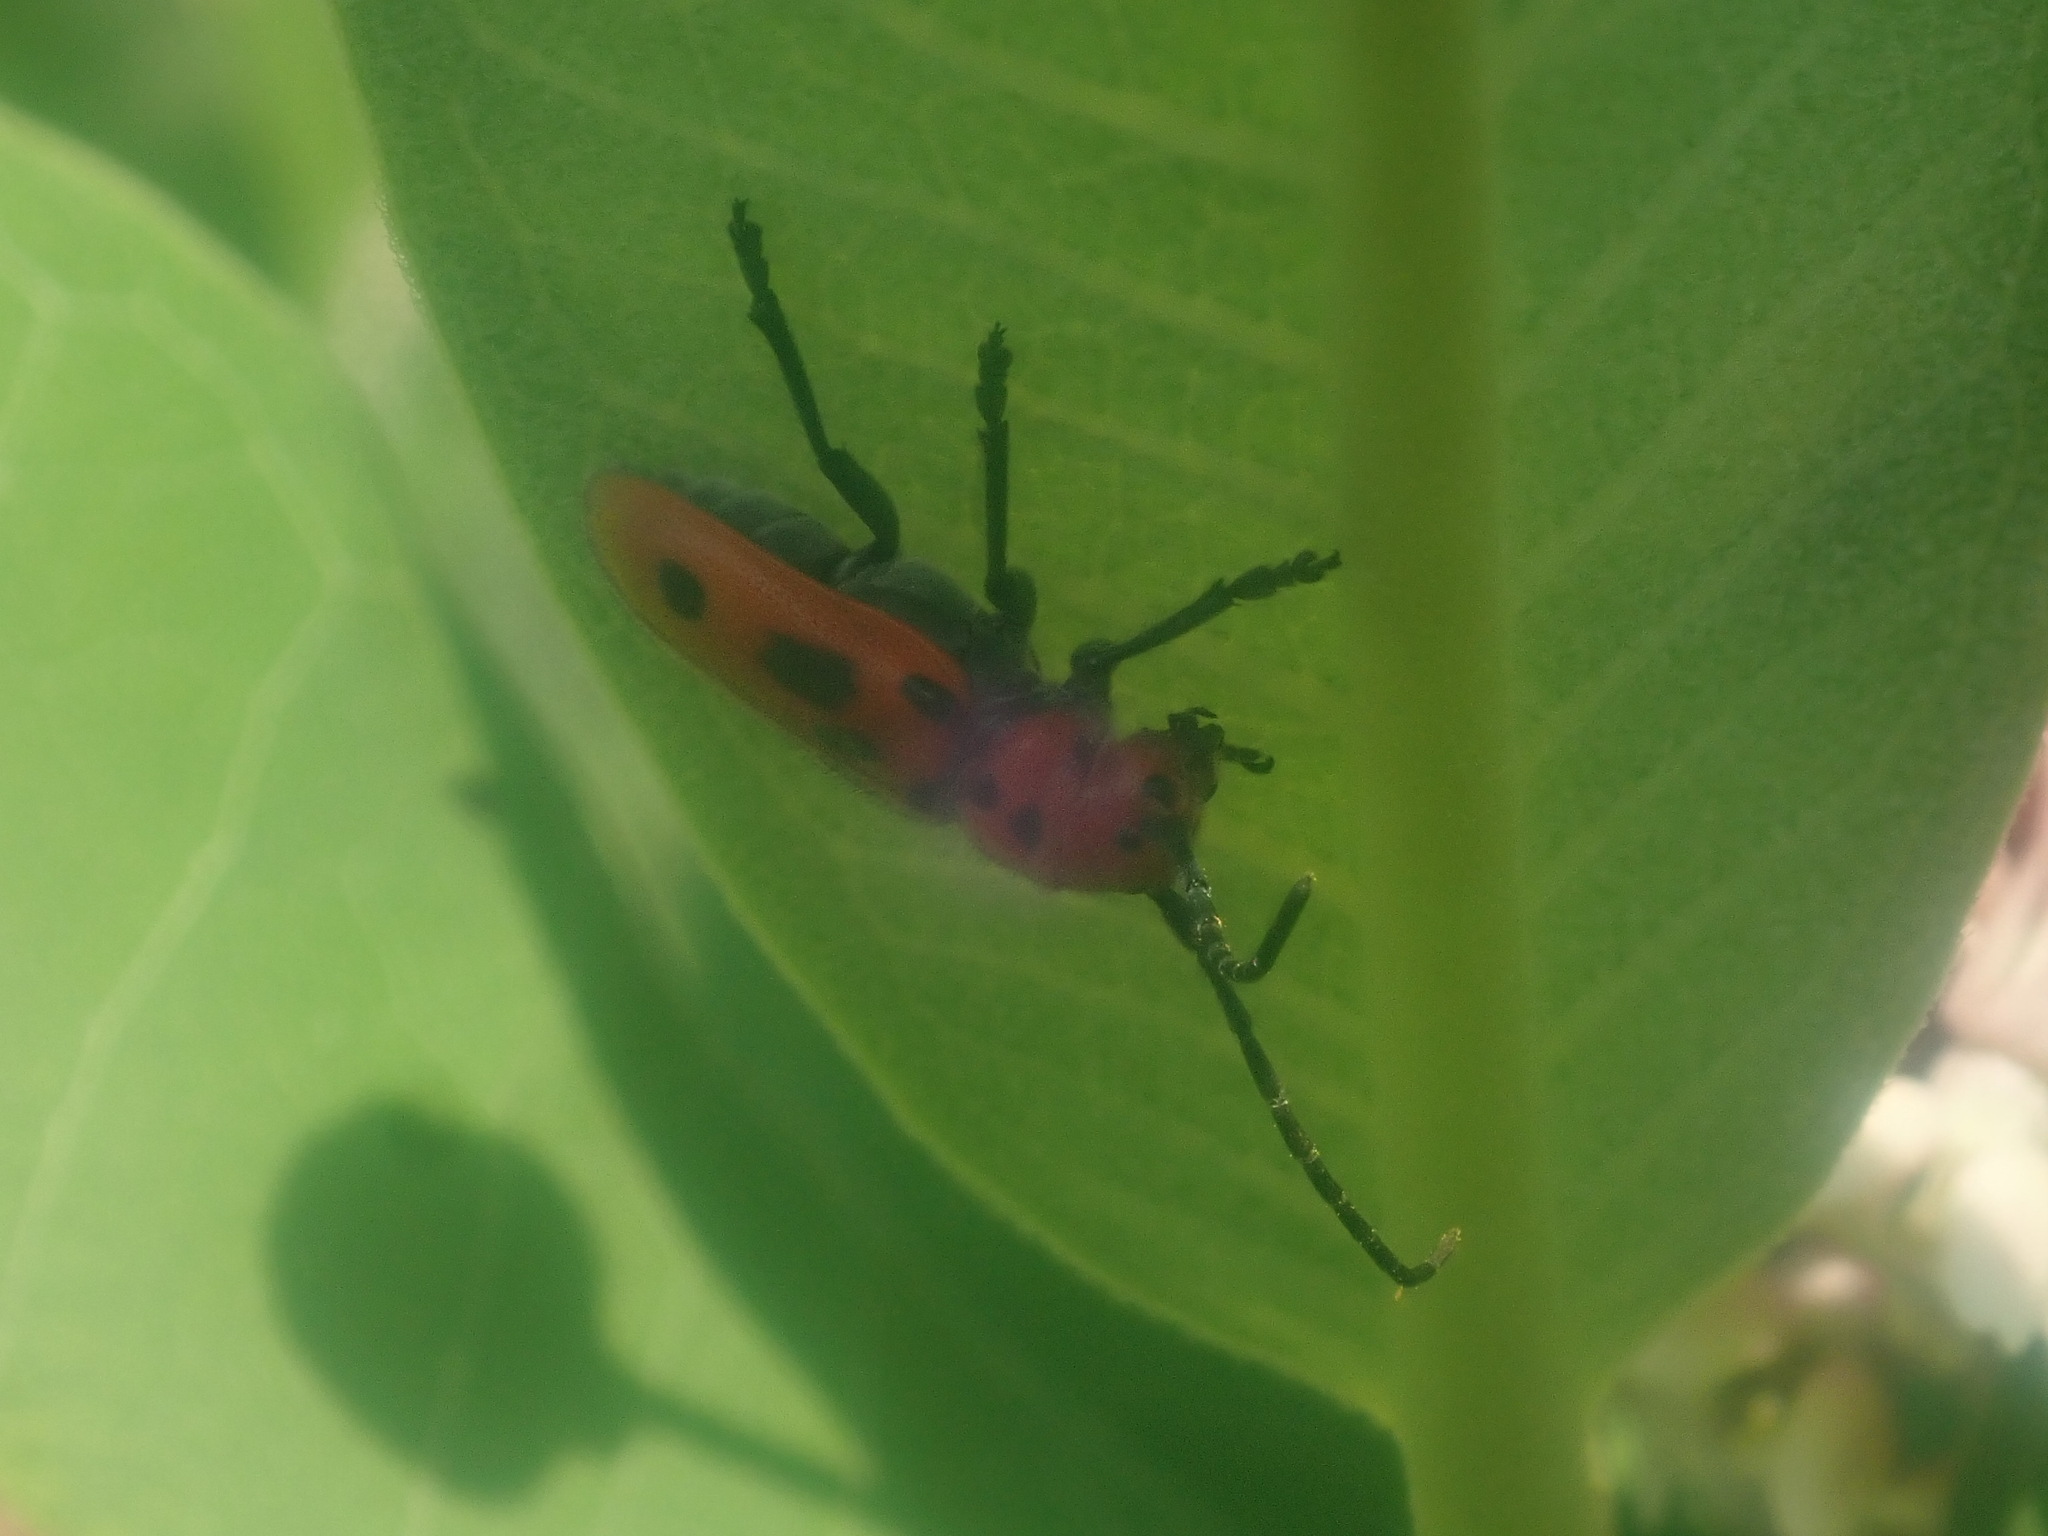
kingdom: Animalia
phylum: Arthropoda
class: Insecta
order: Coleoptera
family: Cerambycidae
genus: Tetraopes
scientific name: Tetraopes tetrophthalmus
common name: Red milkweed beetle
